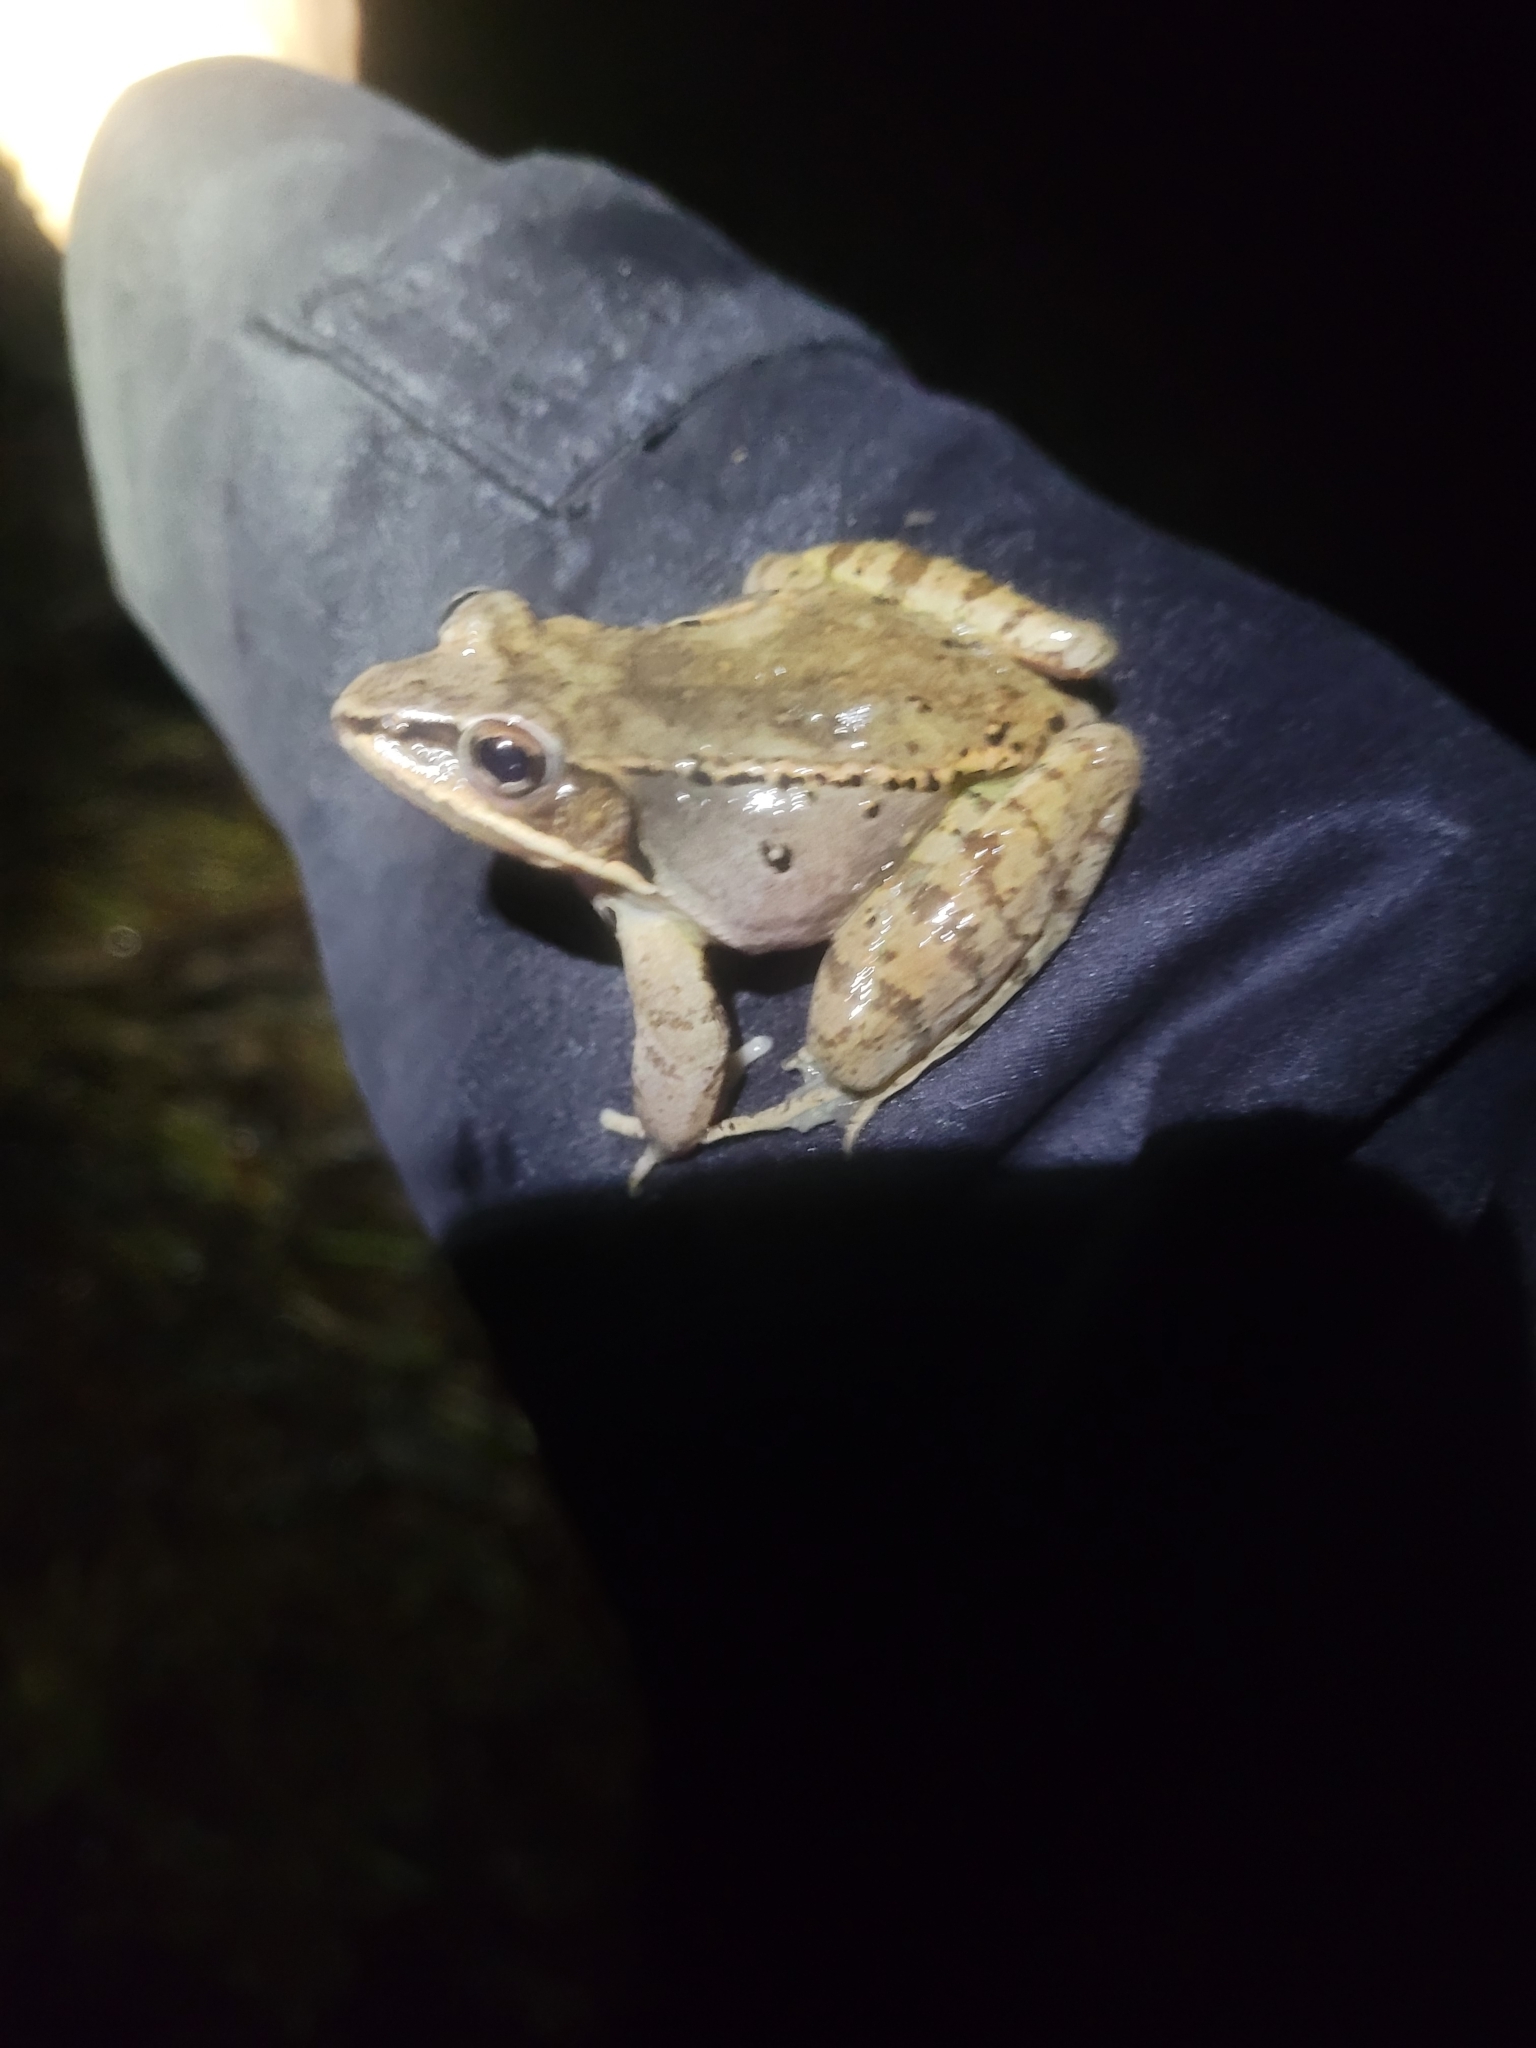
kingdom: Animalia
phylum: Chordata
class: Amphibia
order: Anura
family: Ranidae
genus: Lithobates
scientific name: Lithobates sylvaticus
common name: Wood frog
